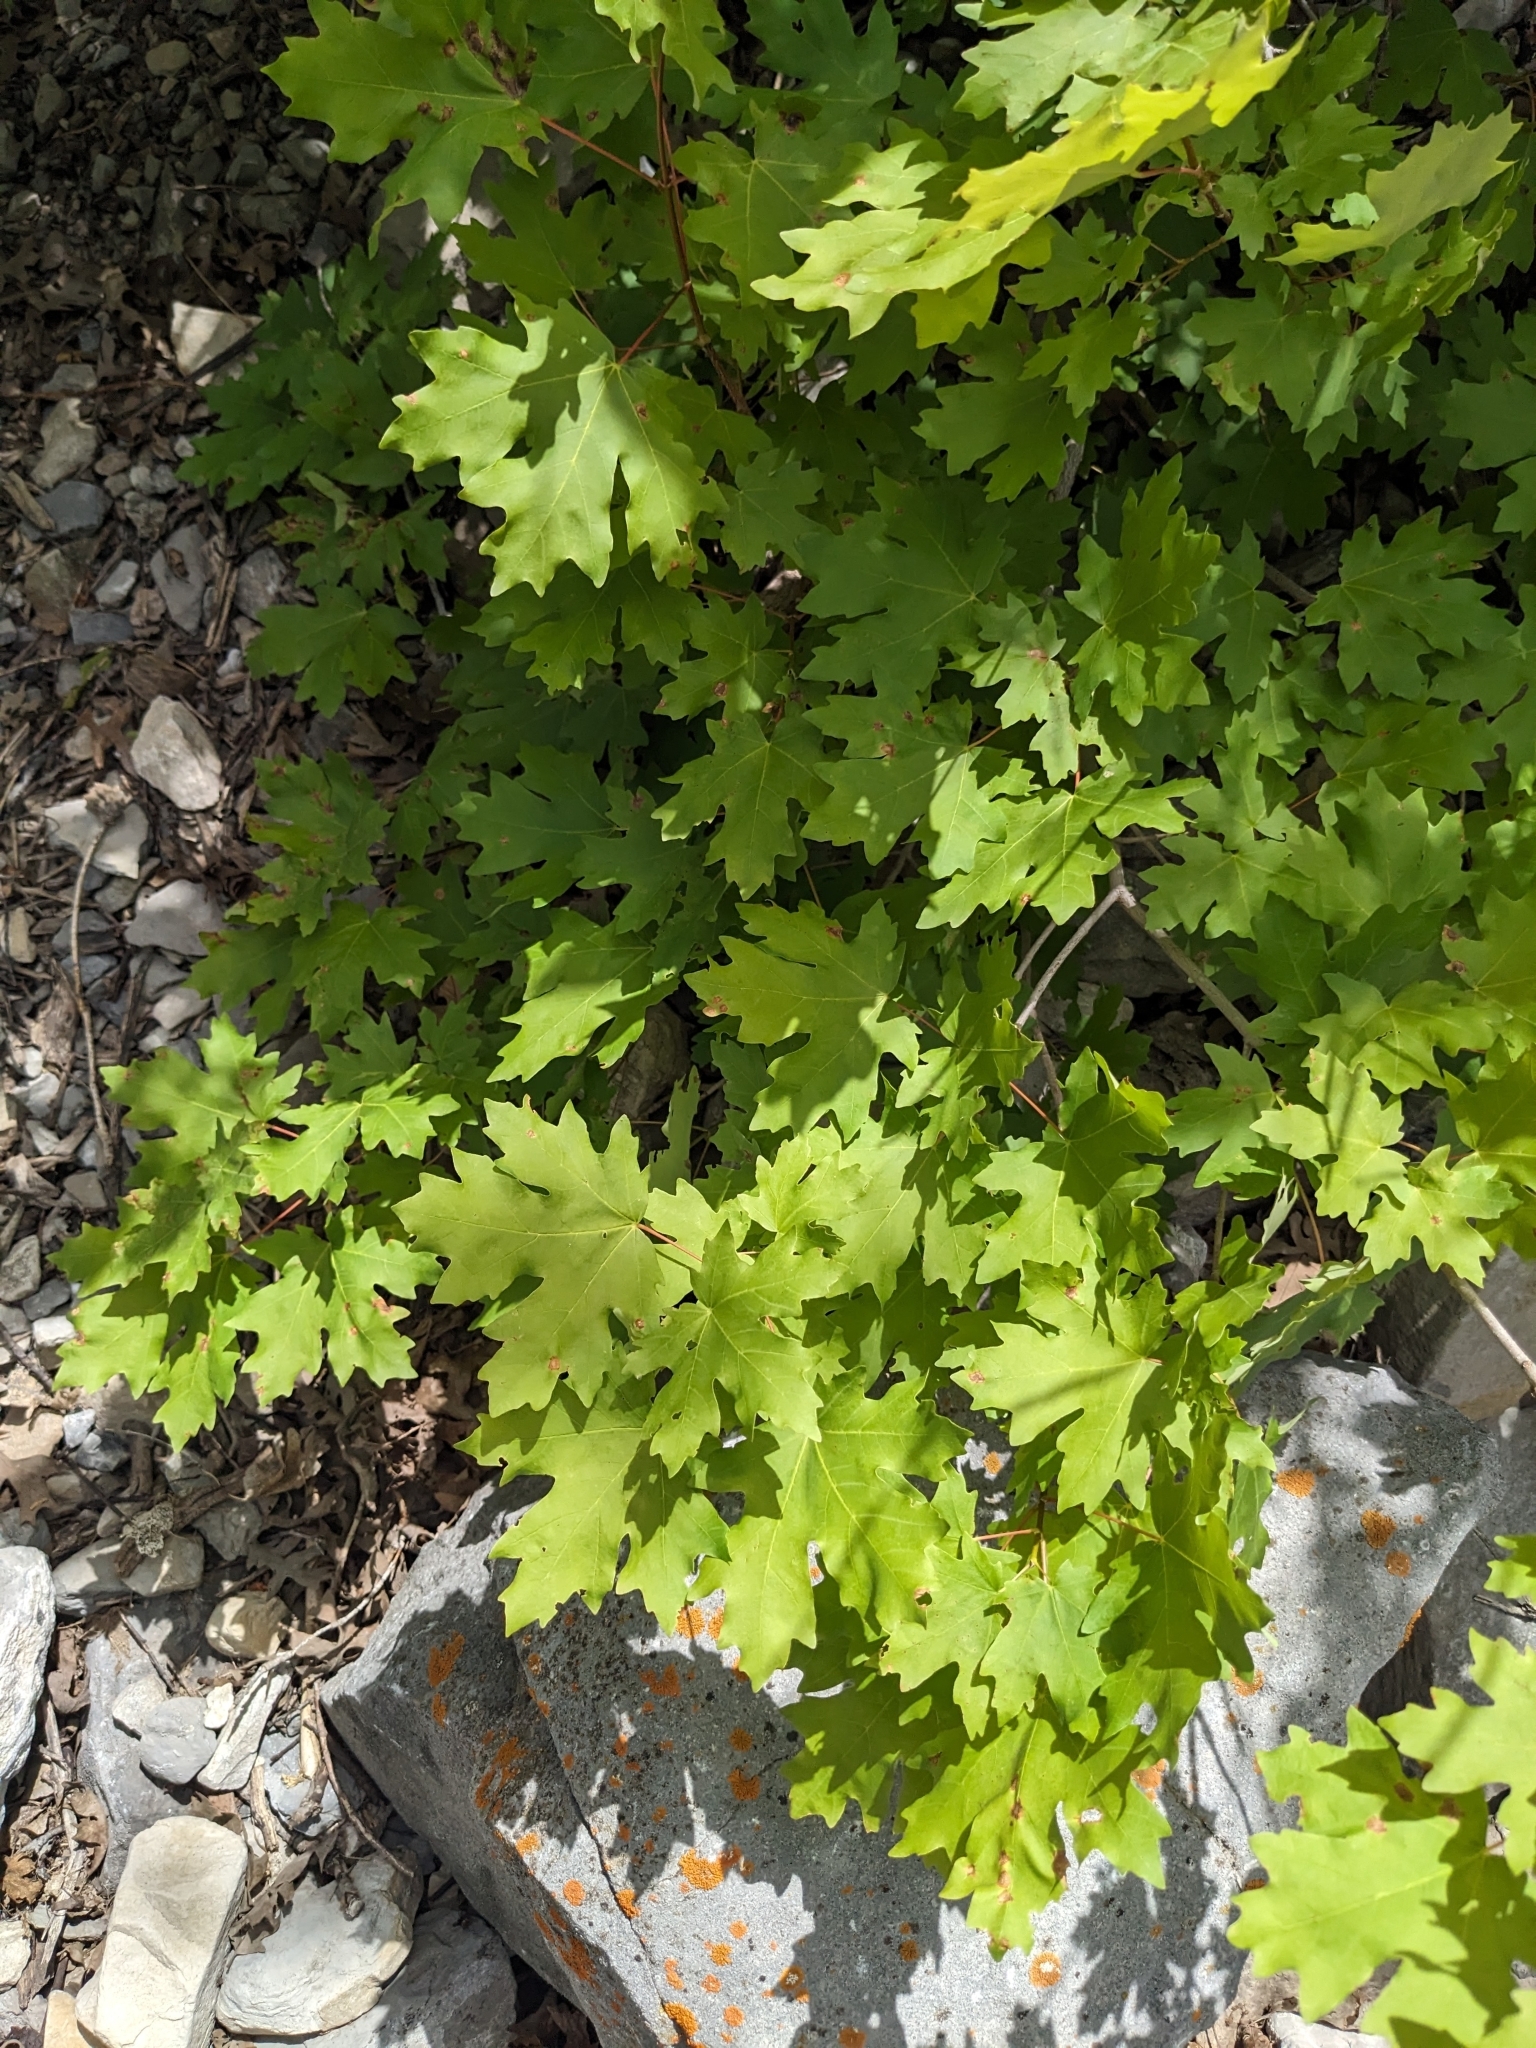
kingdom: Plantae
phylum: Tracheophyta
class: Magnoliopsida
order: Sapindales
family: Sapindaceae
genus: Acer
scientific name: Acer grandidentatum
